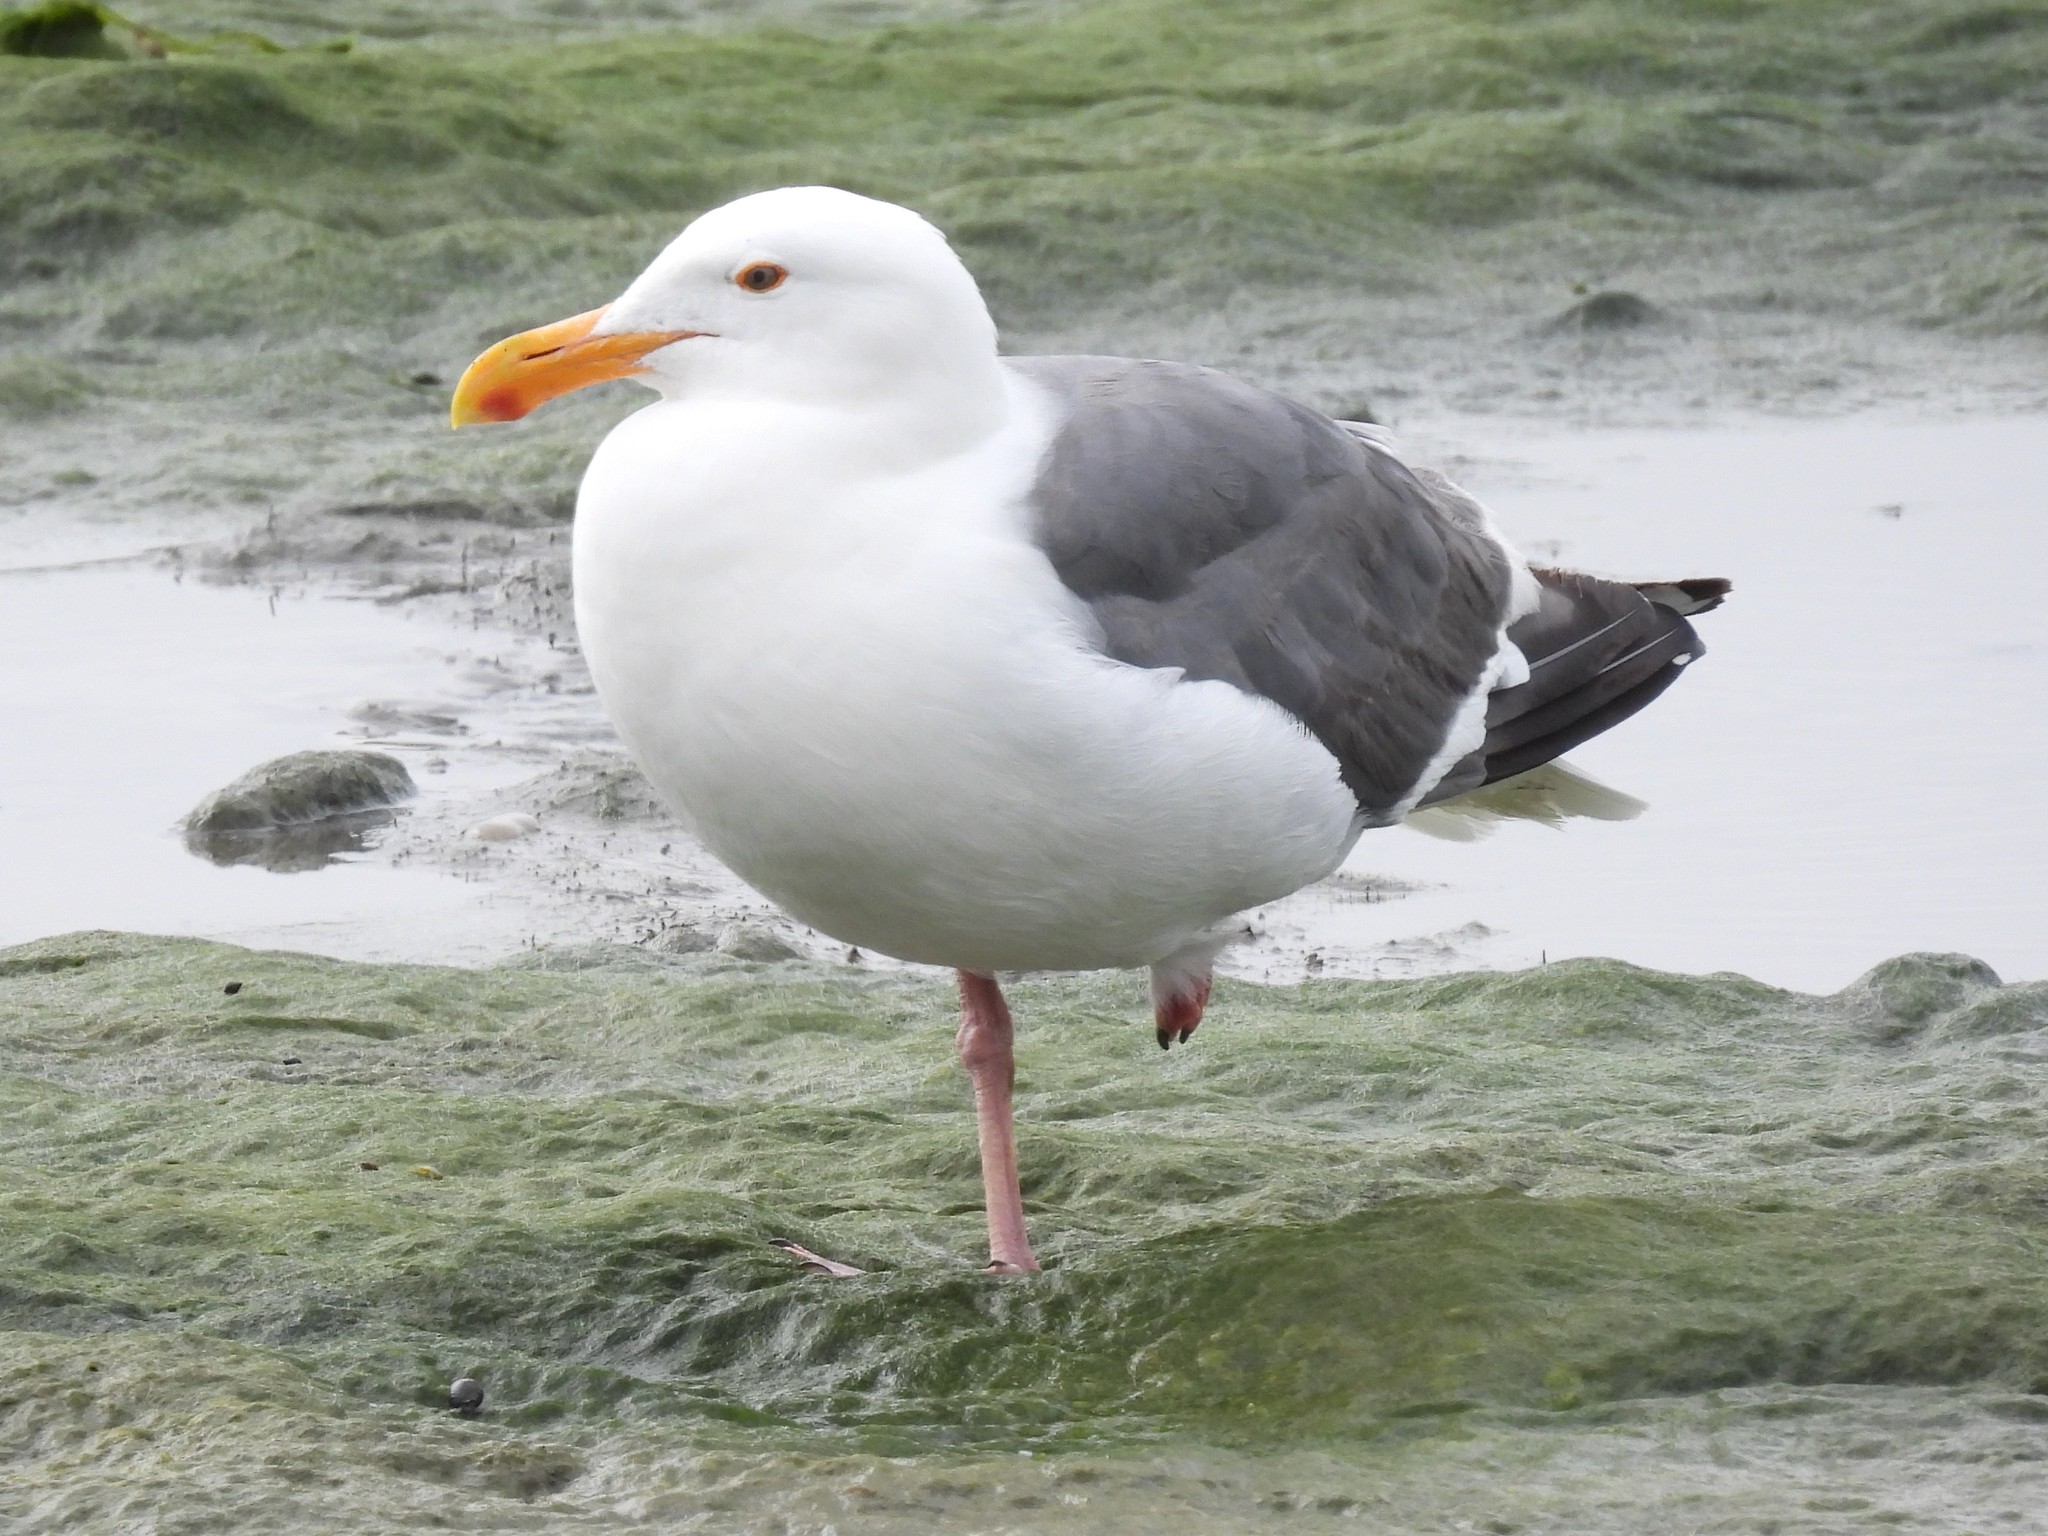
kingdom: Animalia
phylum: Chordata
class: Aves
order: Charadriiformes
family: Laridae
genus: Larus
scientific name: Larus occidentalis
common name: Western gull
